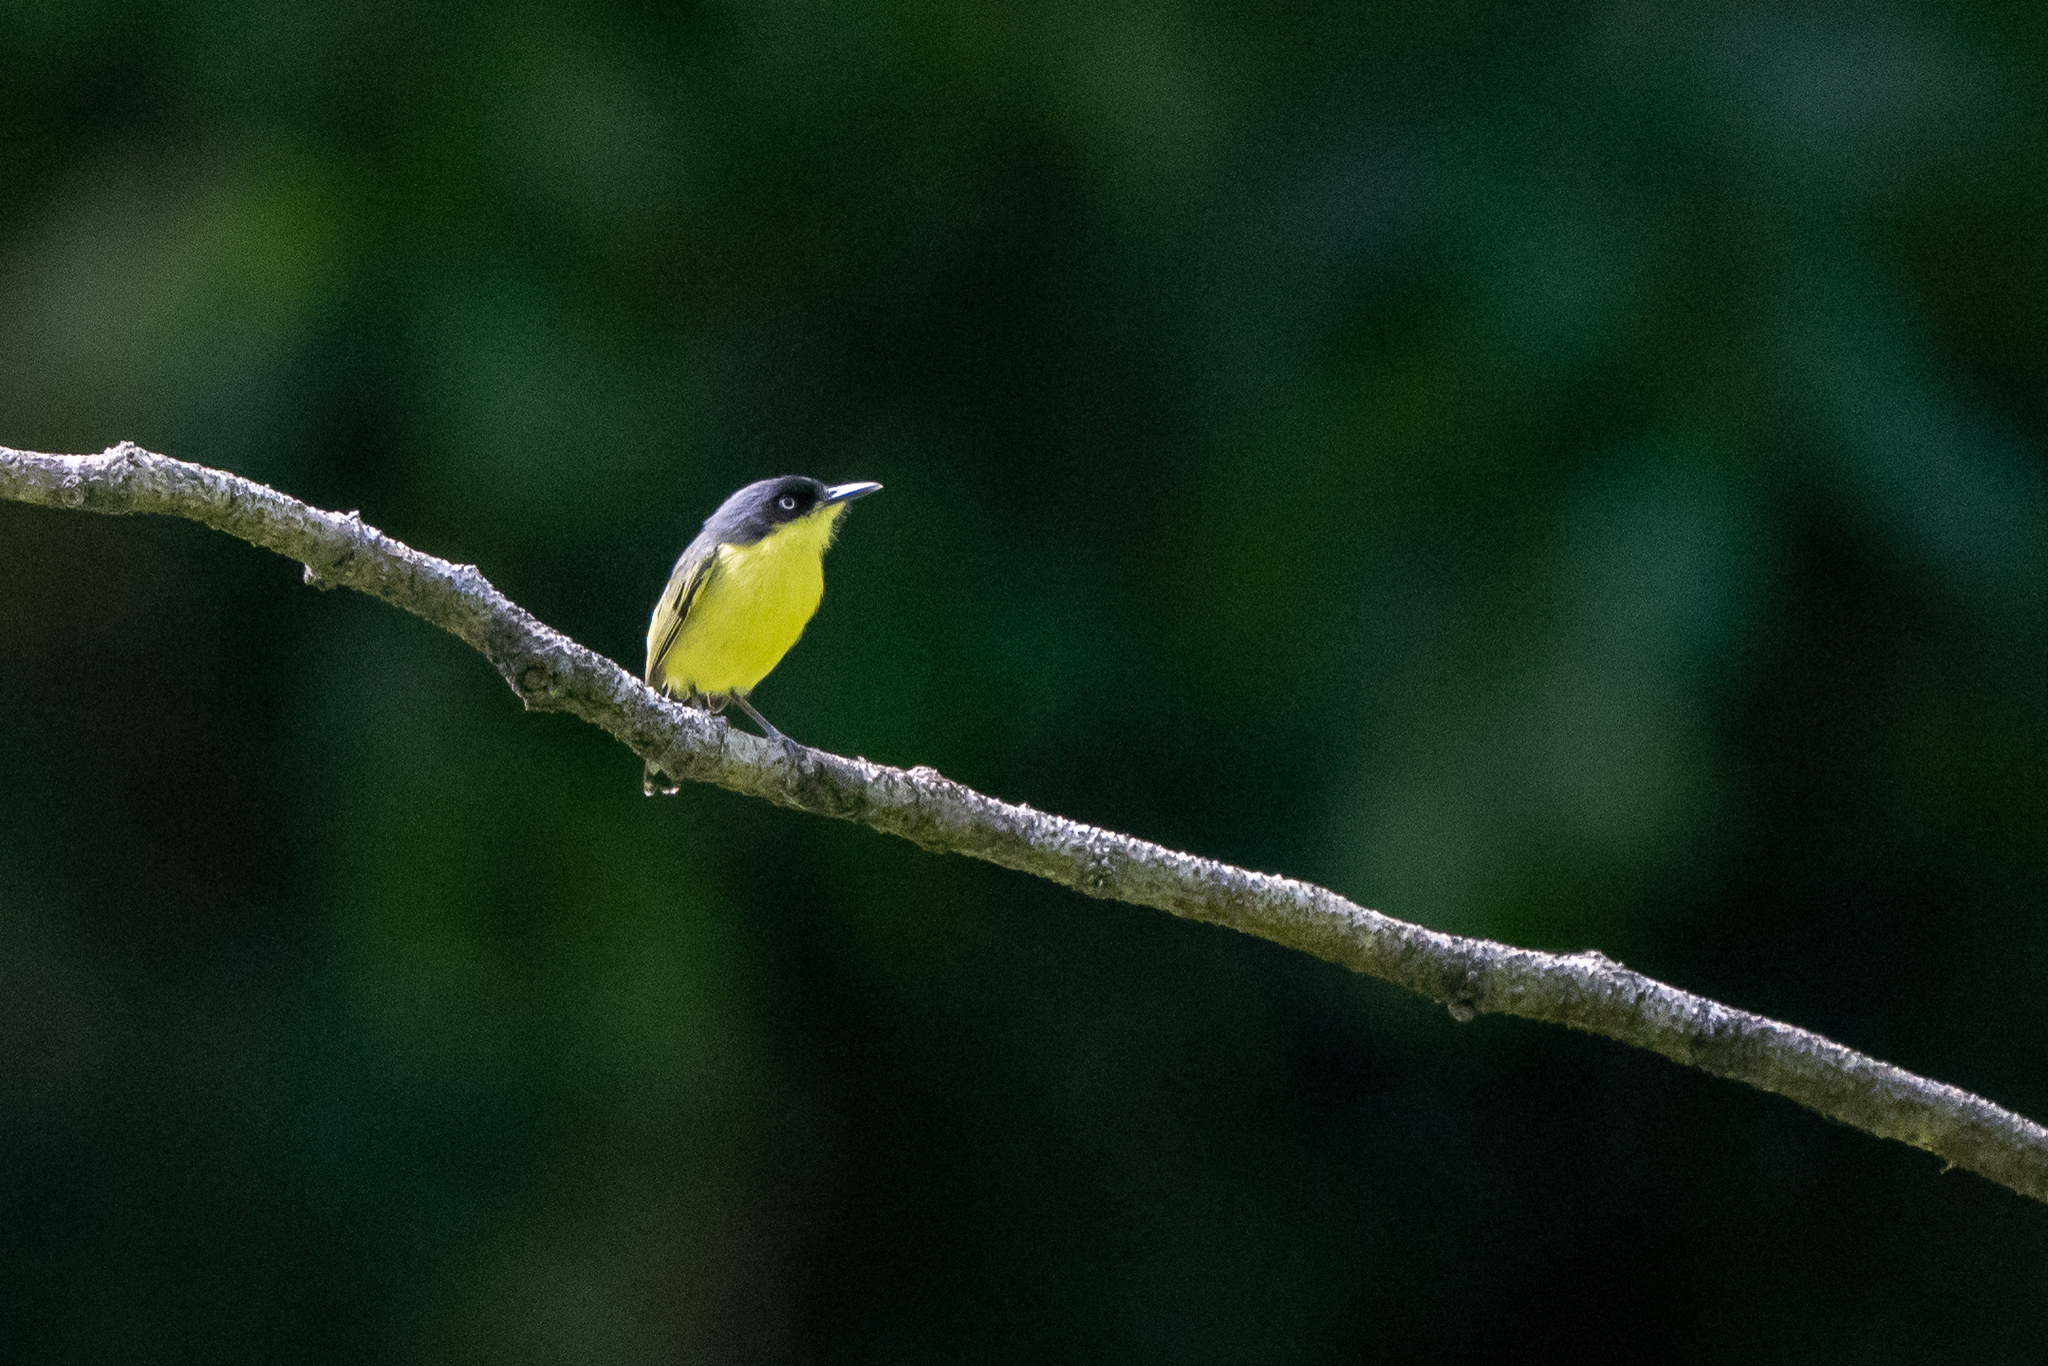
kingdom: Animalia
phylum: Chordata
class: Aves
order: Passeriformes
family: Tyrannidae
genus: Todirostrum
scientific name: Todirostrum cinereum
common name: Common tody-flycatcher
